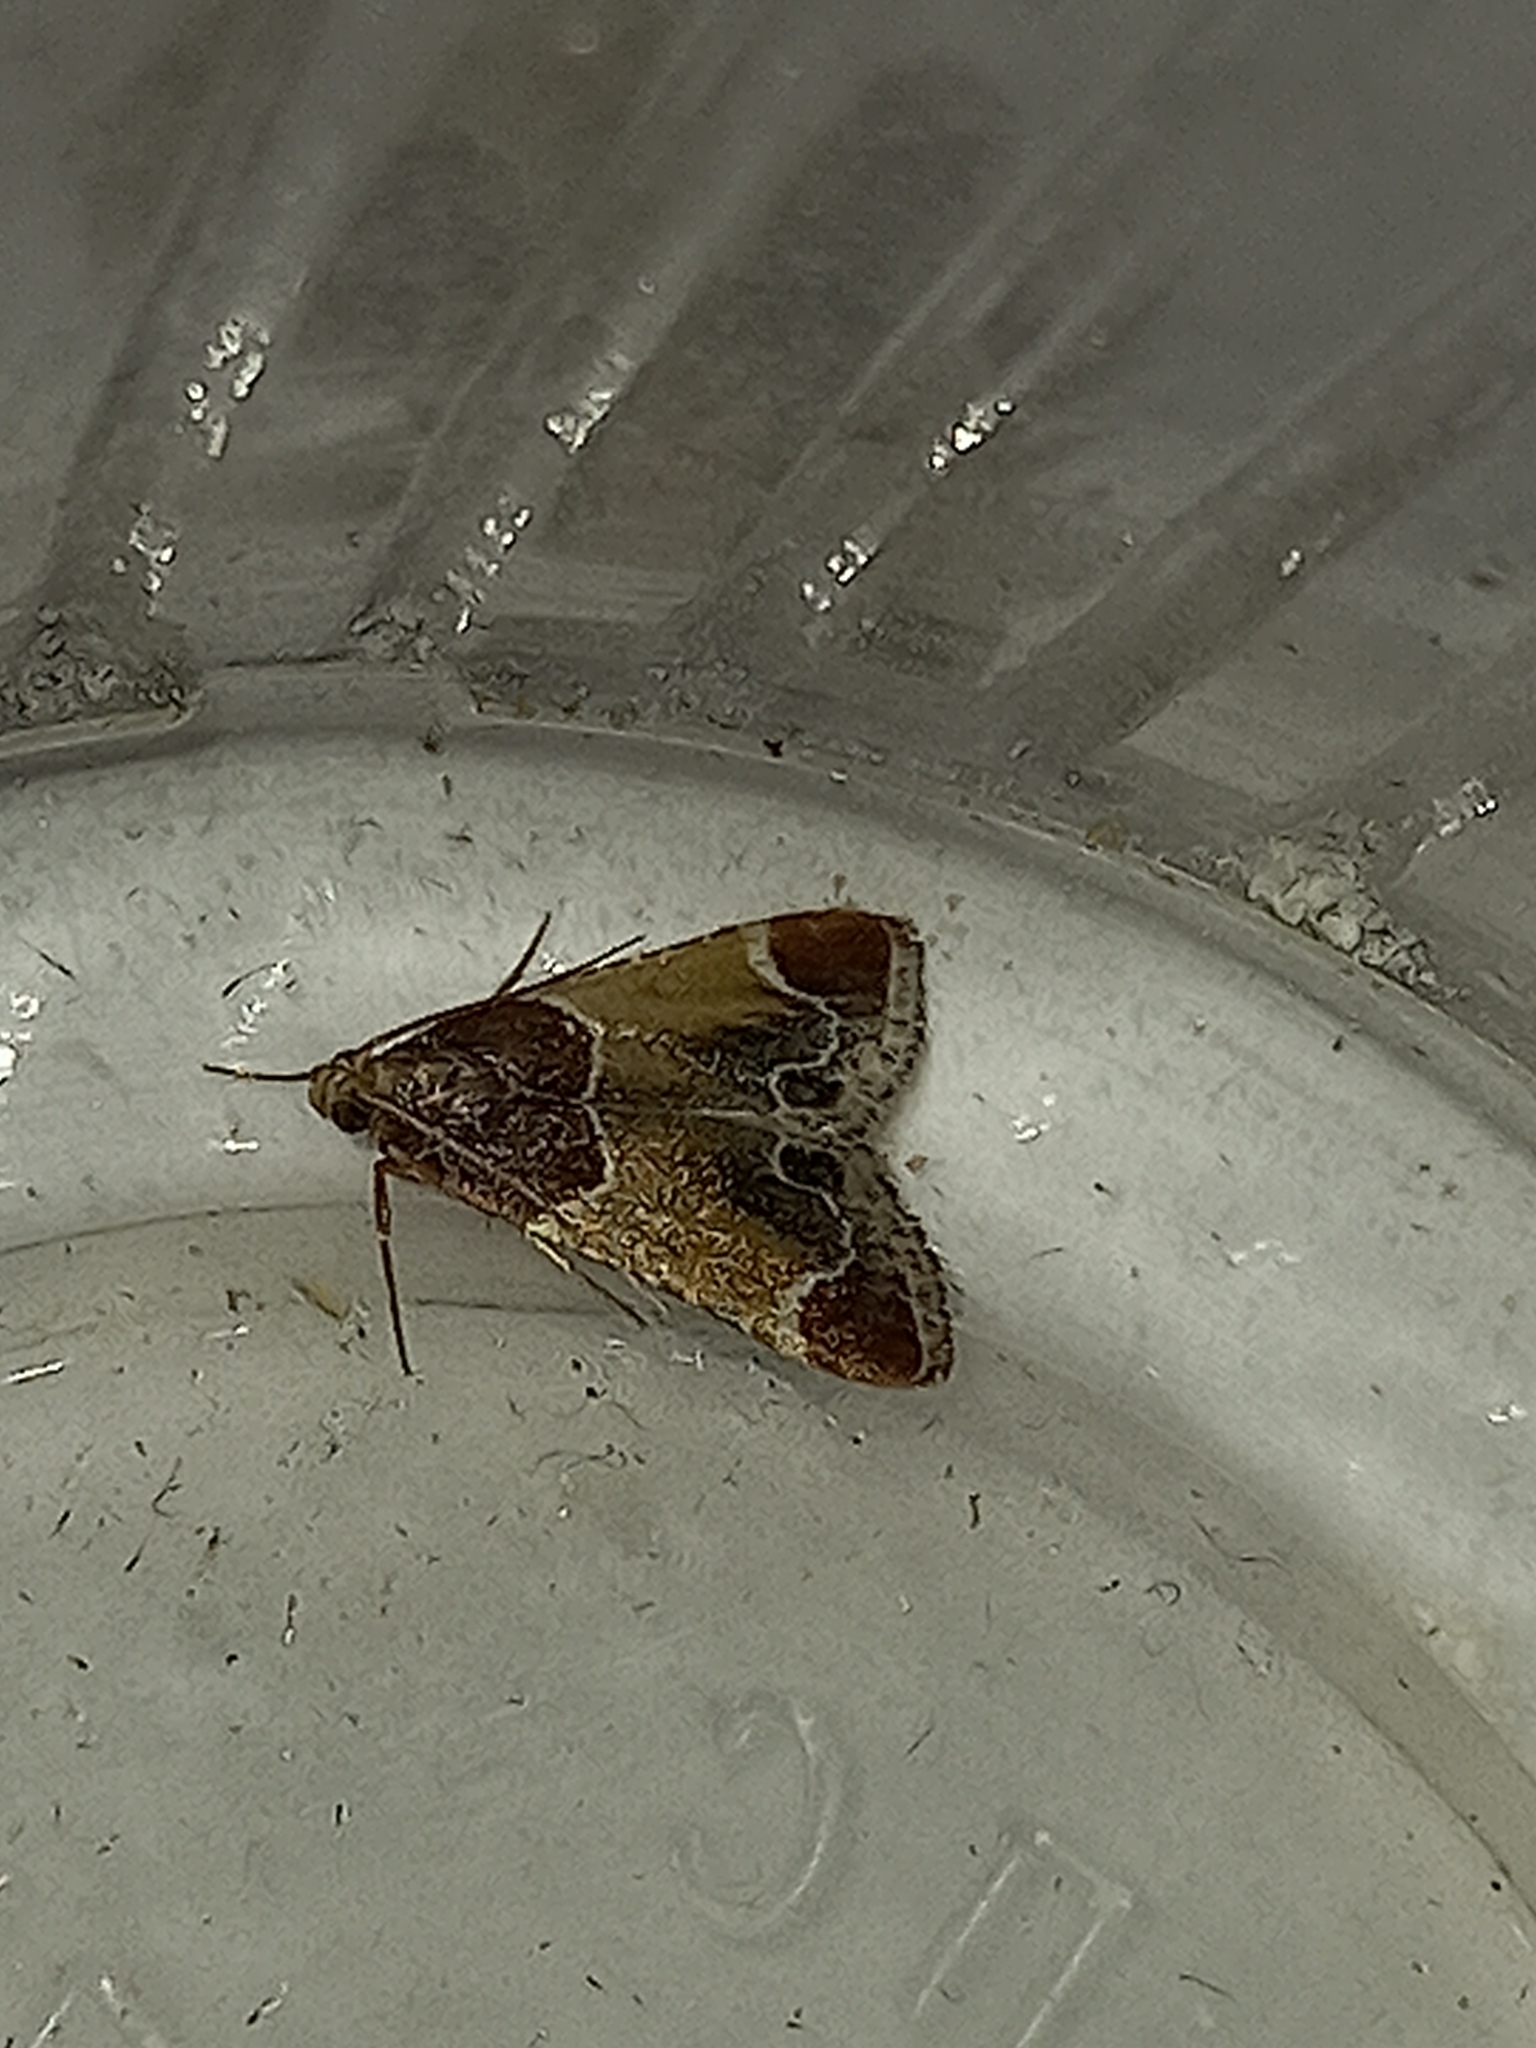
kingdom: Animalia
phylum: Arthropoda
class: Insecta
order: Lepidoptera
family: Pyralidae
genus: Pyralis
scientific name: Pyralis farinalis
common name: Meal moth
